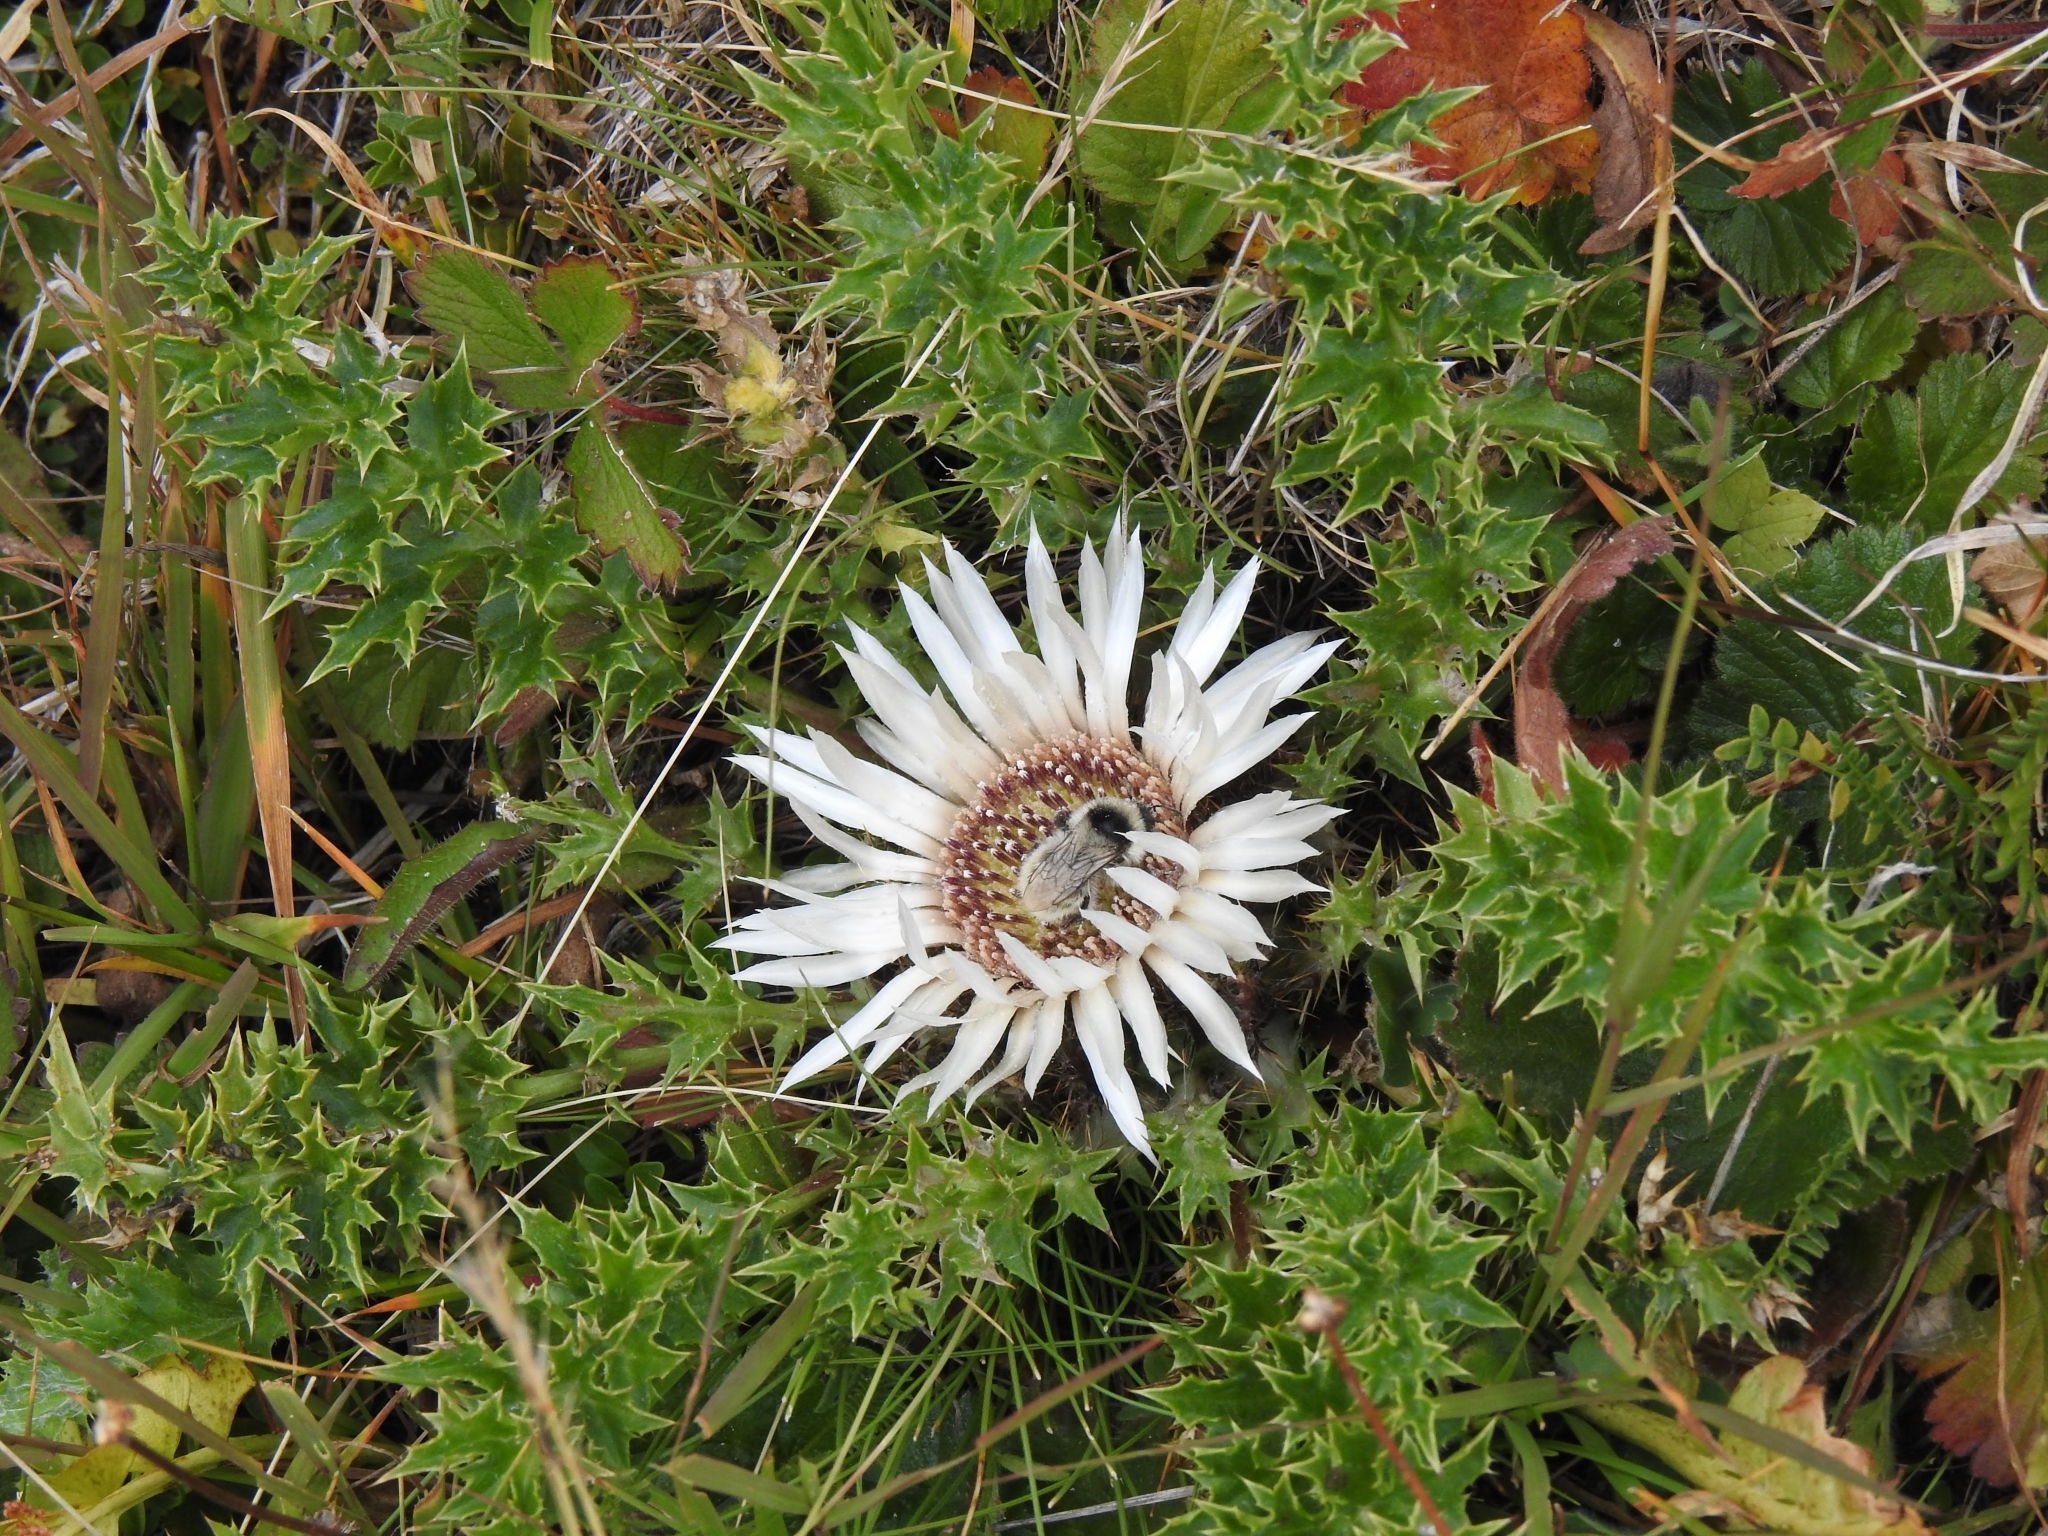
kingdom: Plantae
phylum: Tracheophyta
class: Magnoliopsida
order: Asterales
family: Asteraceae
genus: Carlina
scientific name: Carlina acaulis
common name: Stemless carline thistle
